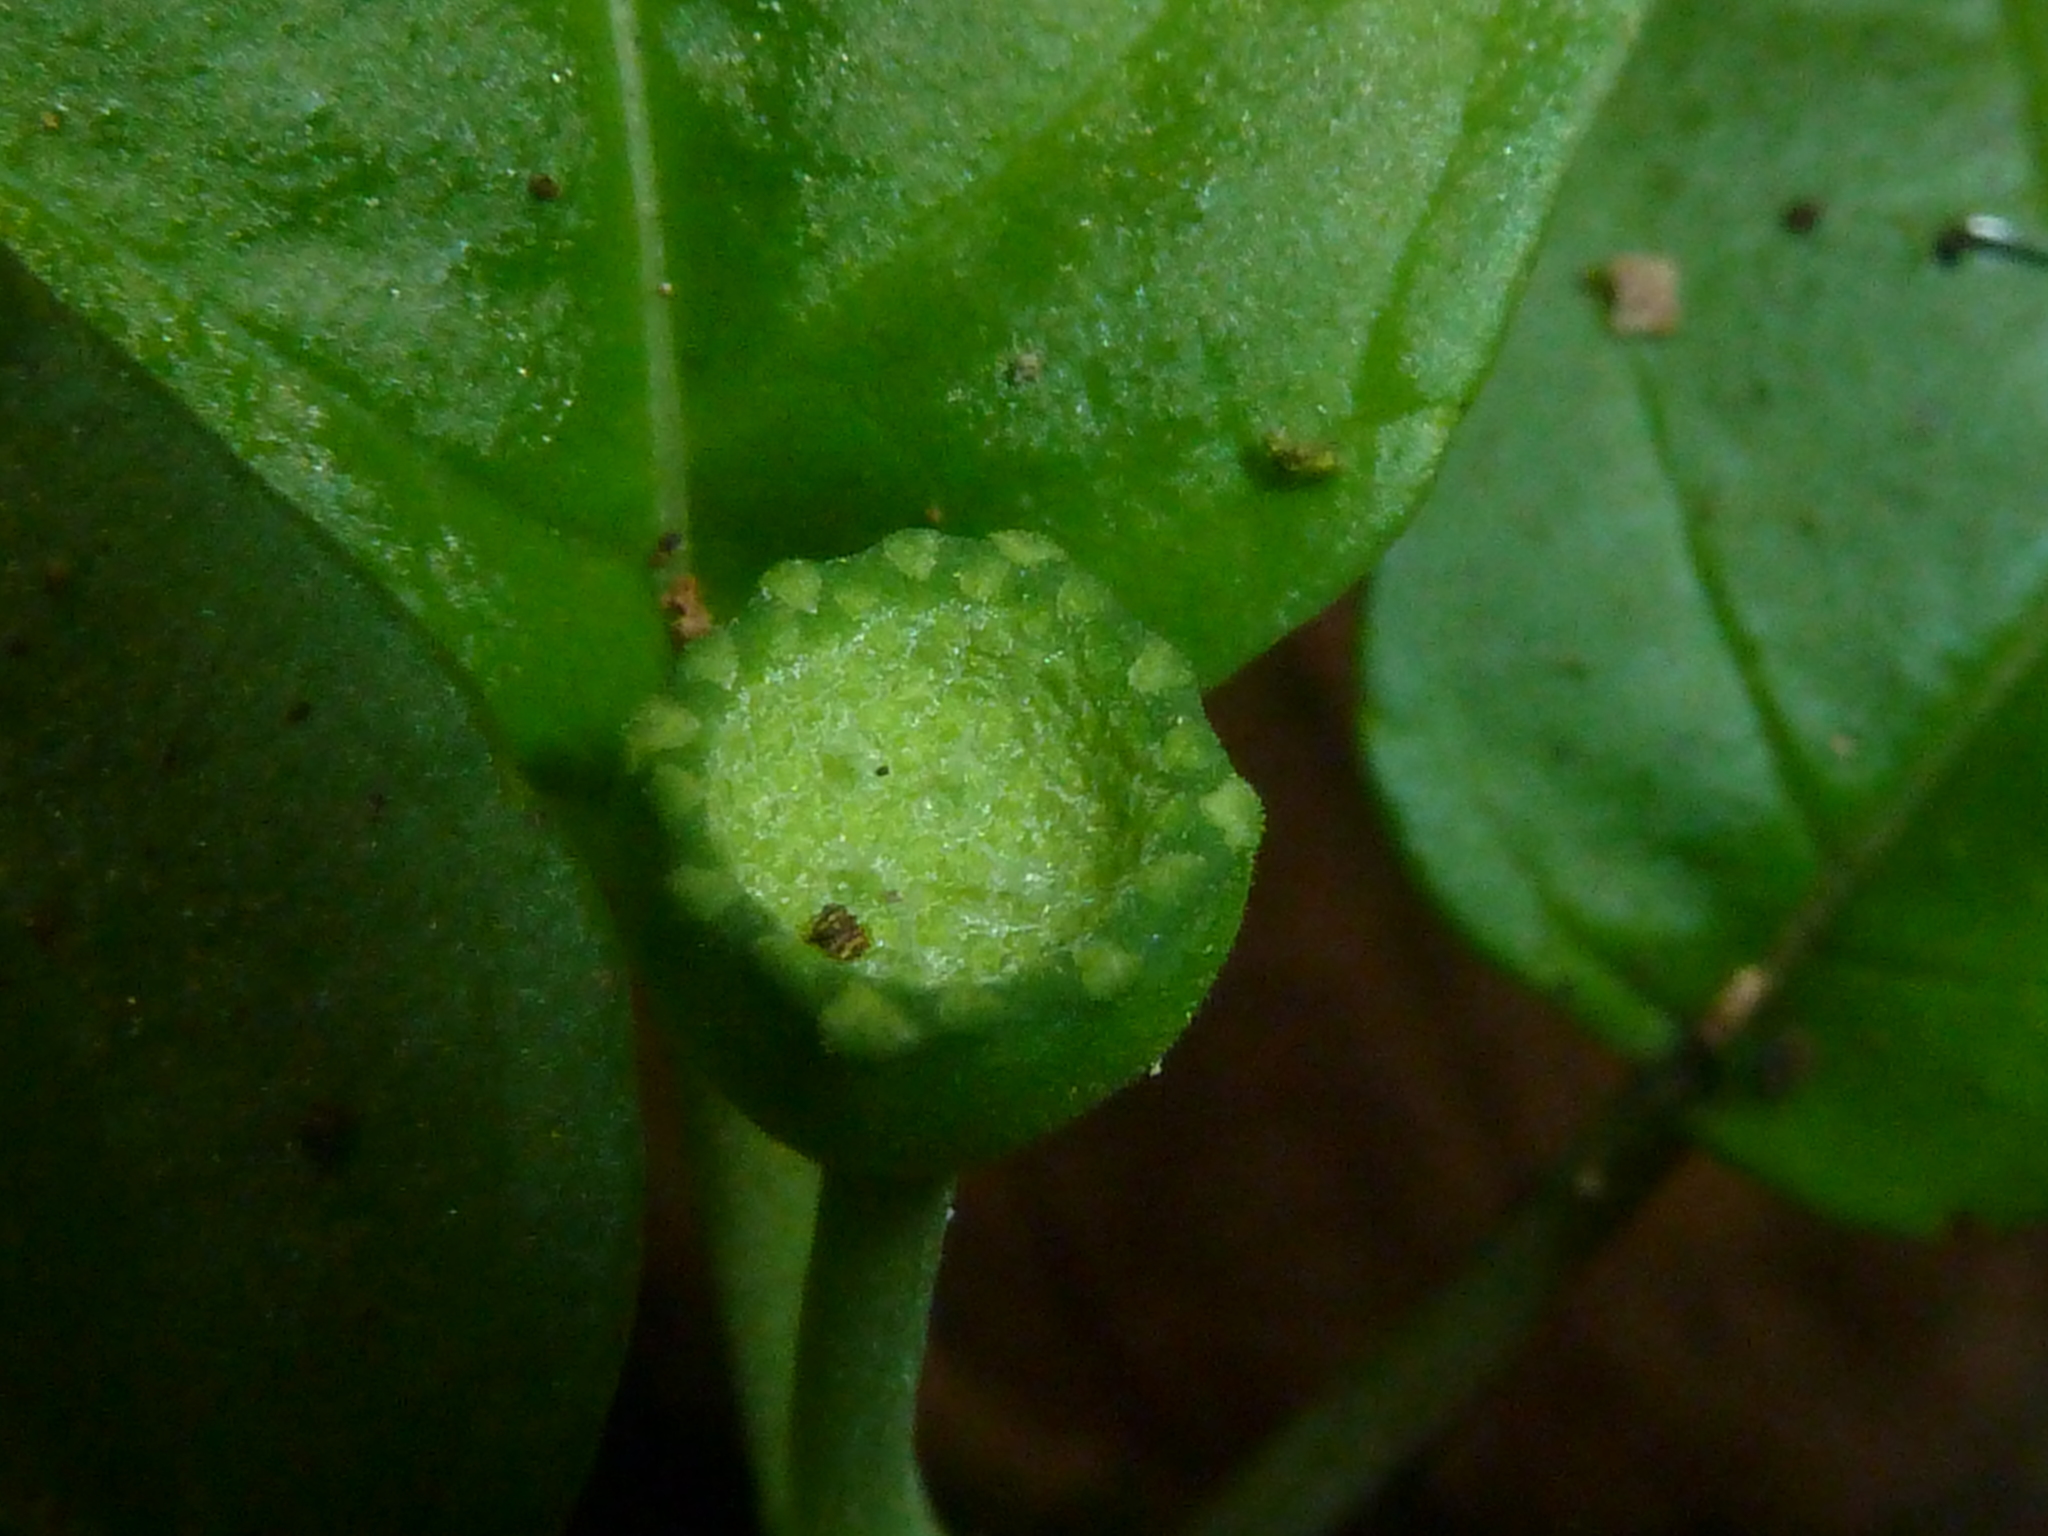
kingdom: Plantae
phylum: Tracheophyta
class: Magnoliopsida
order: Rosales
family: Moraceae
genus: Dorstenia
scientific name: Dorstenia choconiana
